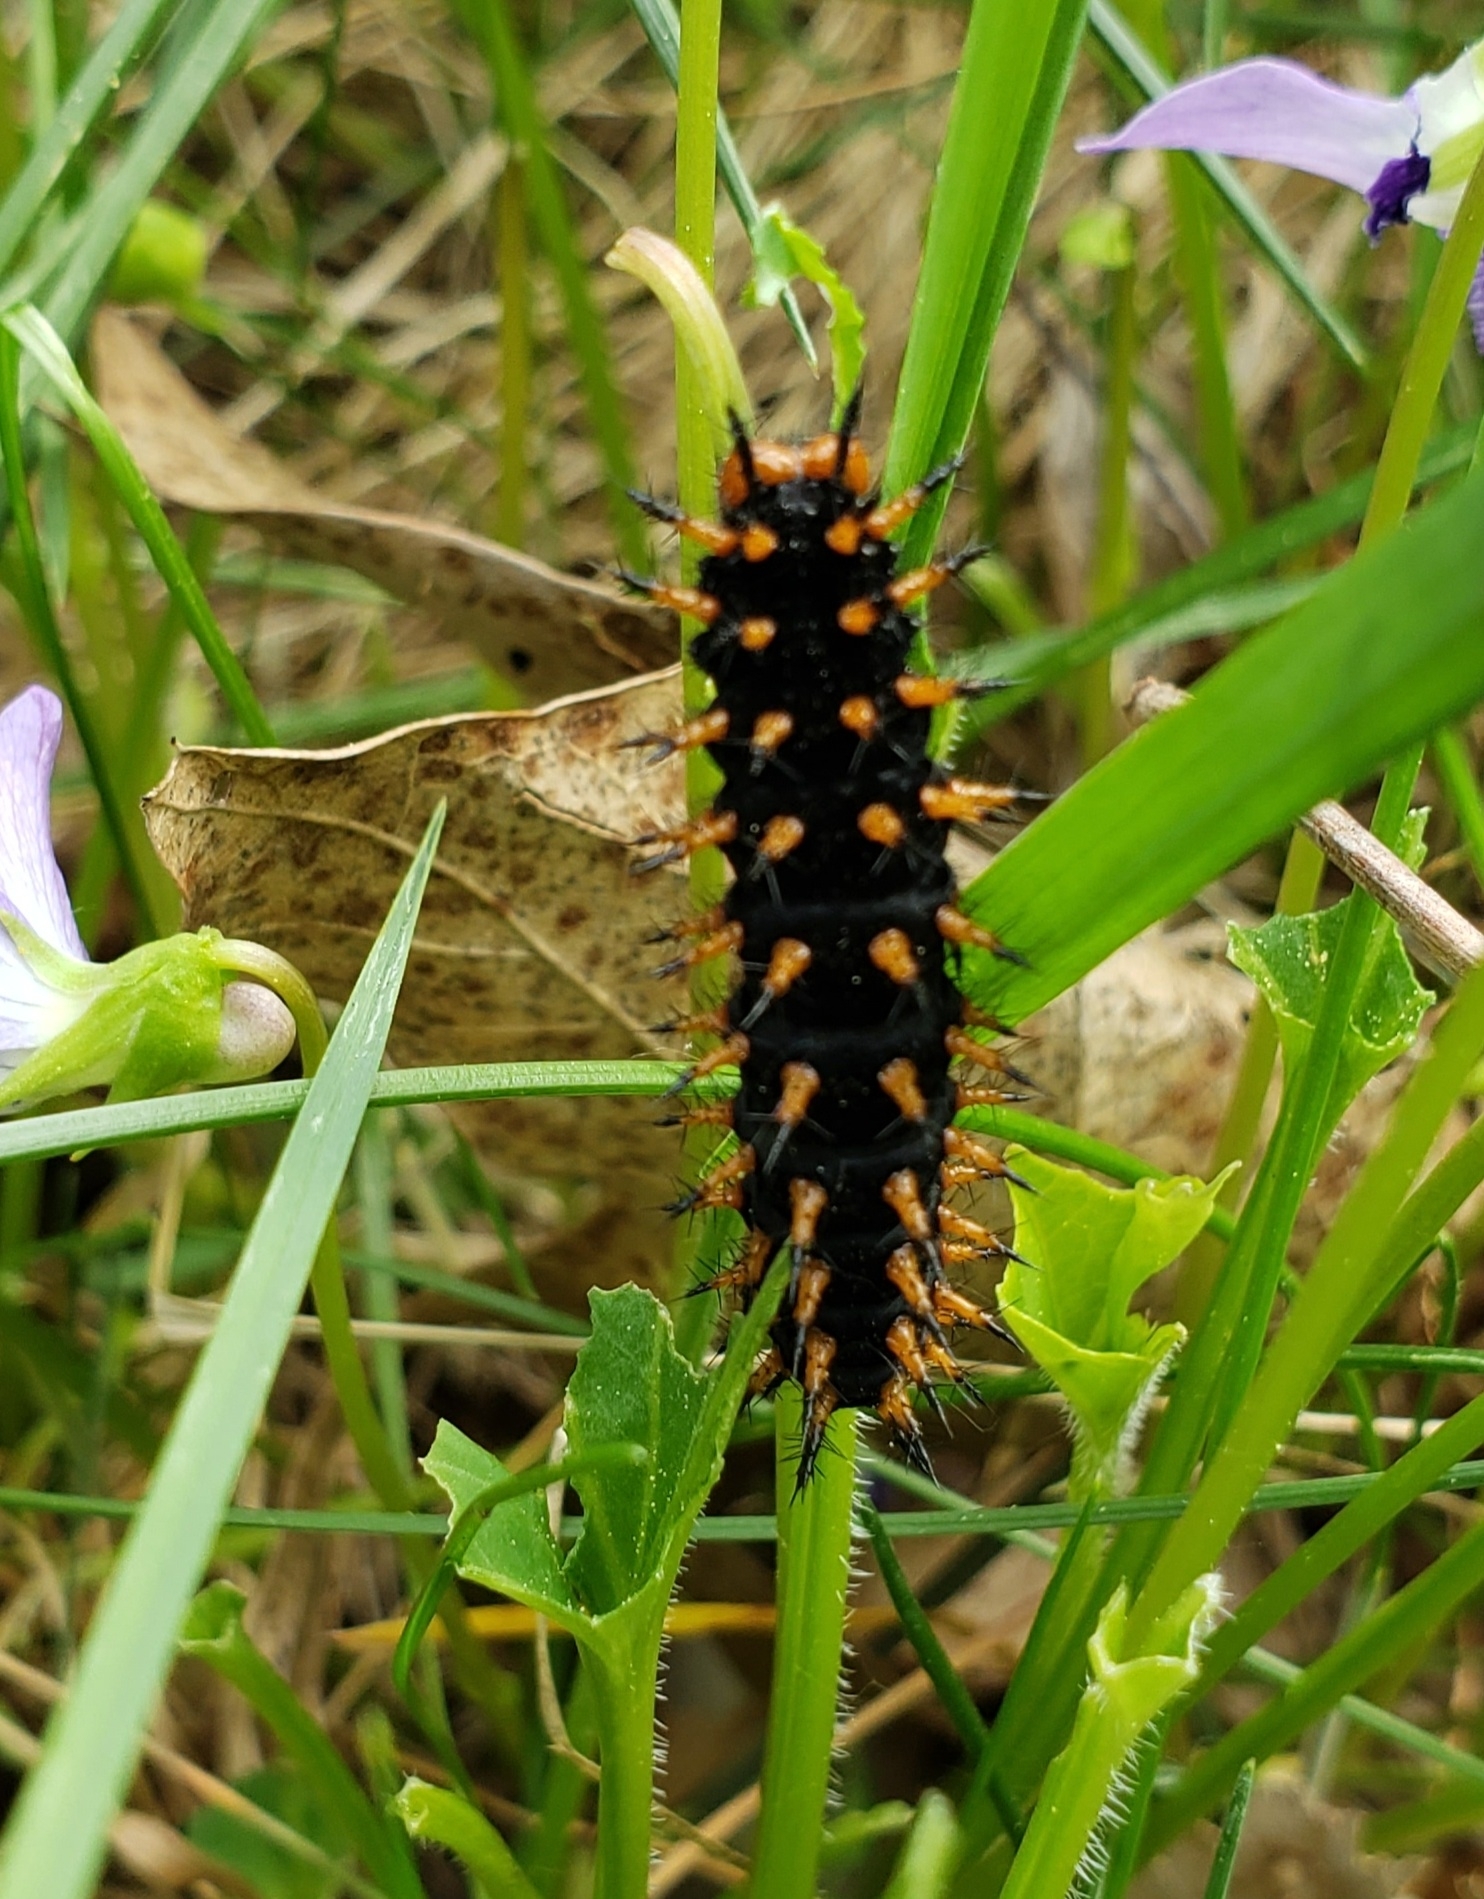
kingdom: Animalia
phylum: Arthropoda
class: Insecta
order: Lepidoptera
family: Nymphalidae
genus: Speyeria
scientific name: Speyeria cybele
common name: Great spangled fritillary
